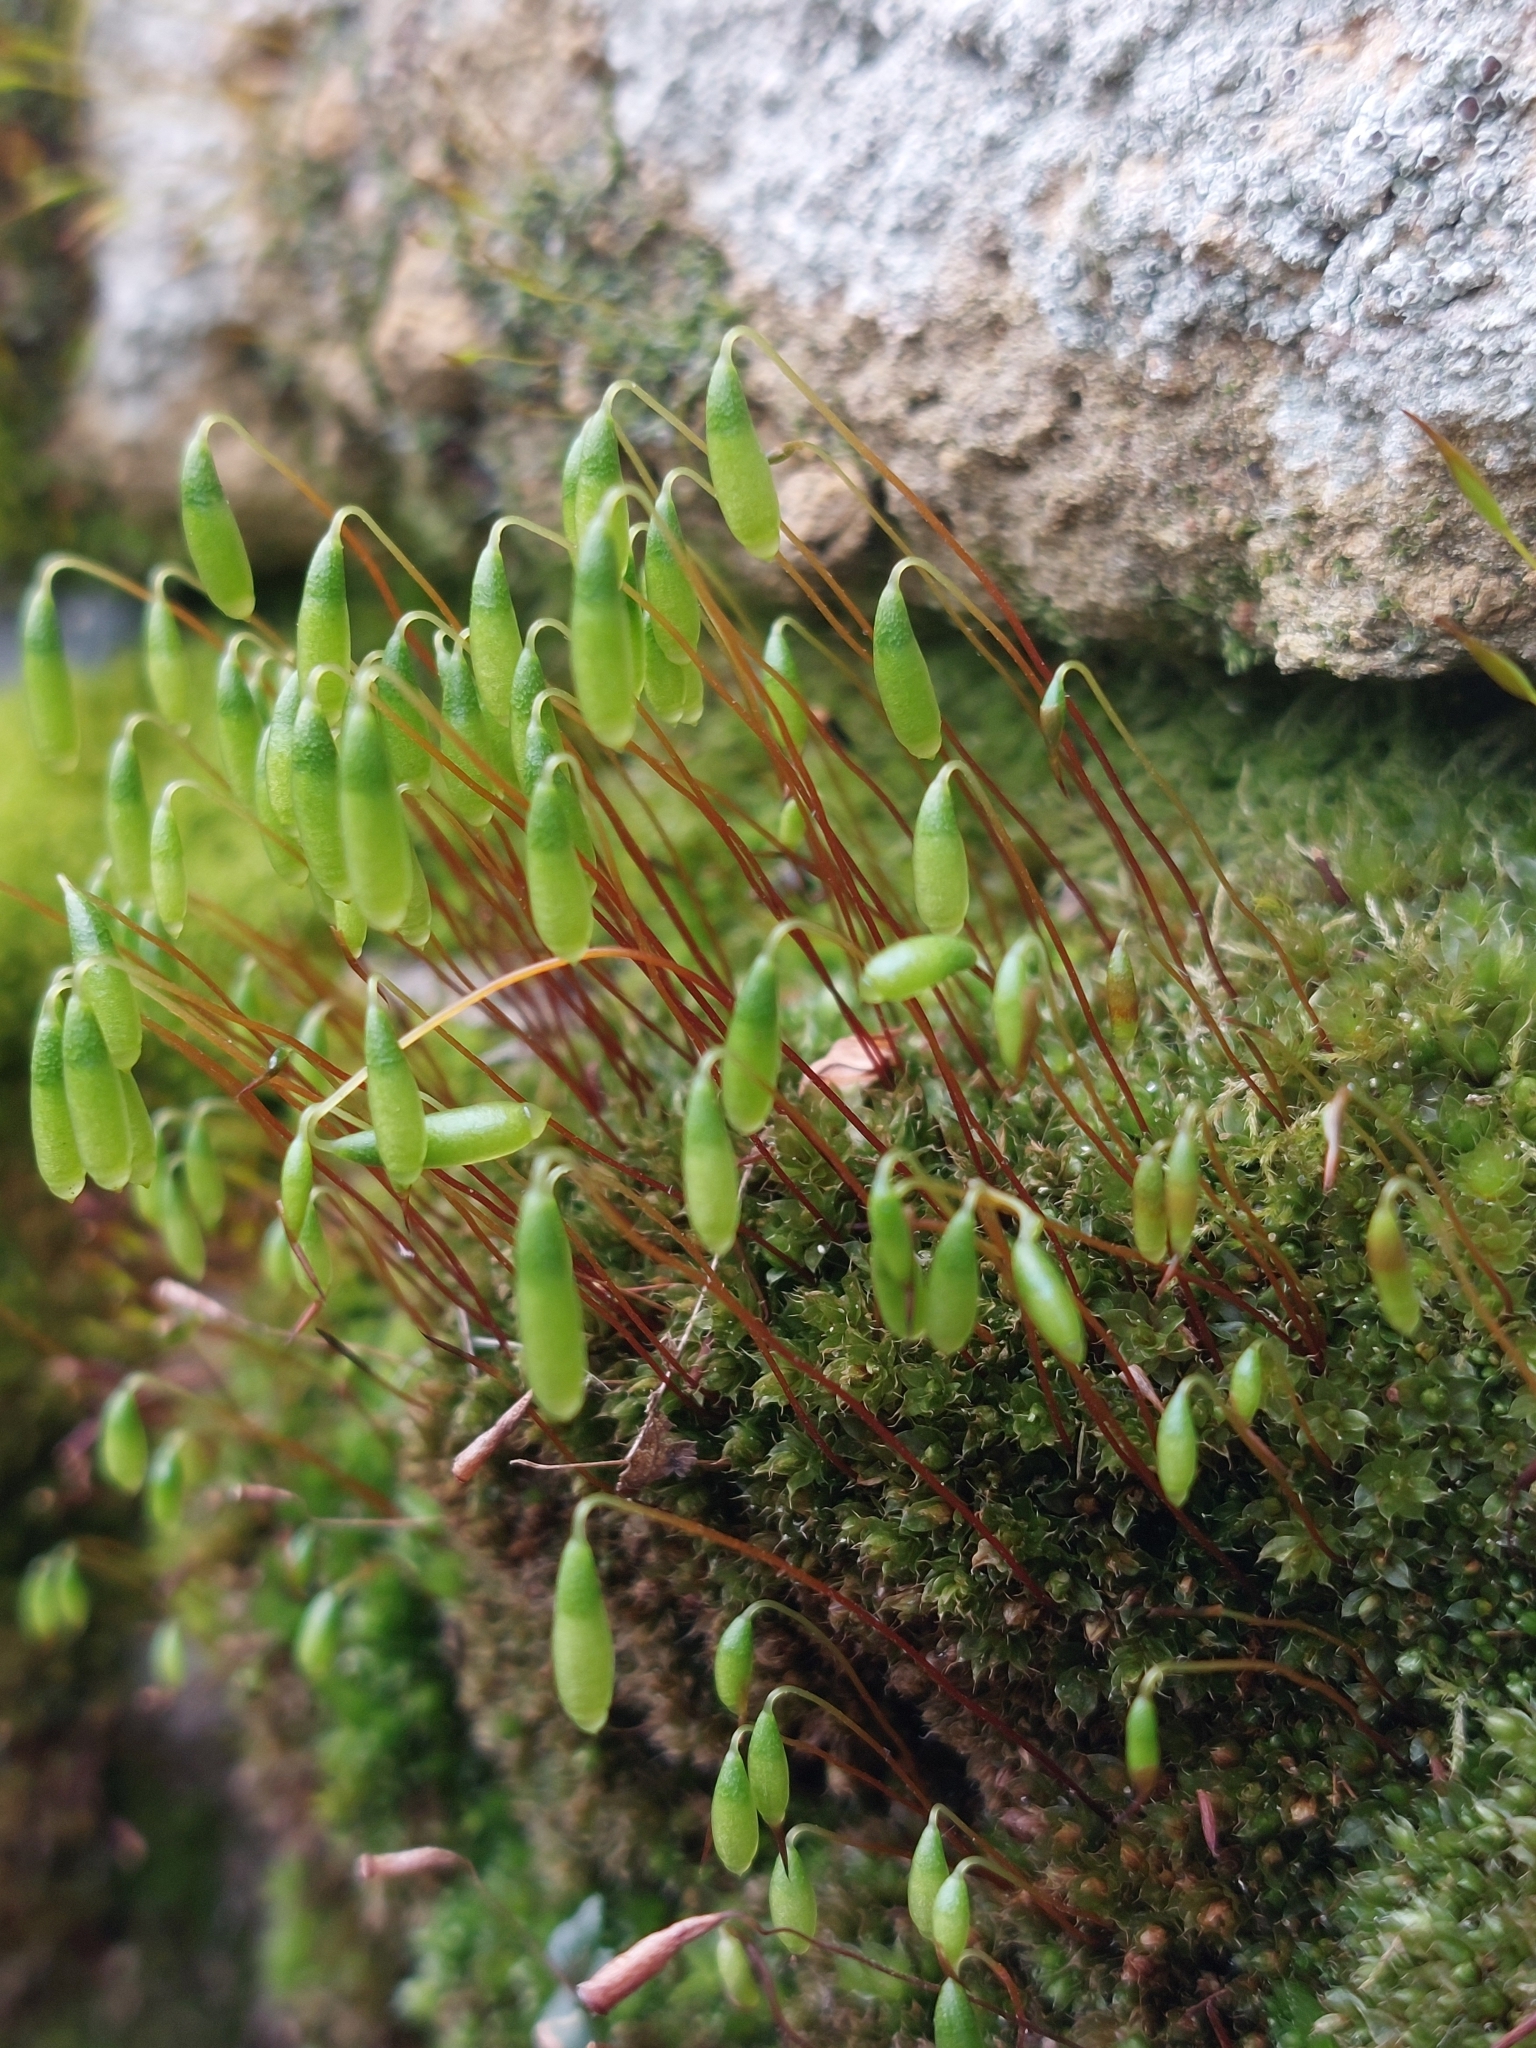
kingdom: Plantae
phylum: Bryophyta
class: Bryopsida
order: Bryales
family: Bryaceae
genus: Rosulabryum
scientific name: Rosulabryum capillare
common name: Capillary thread-moss
